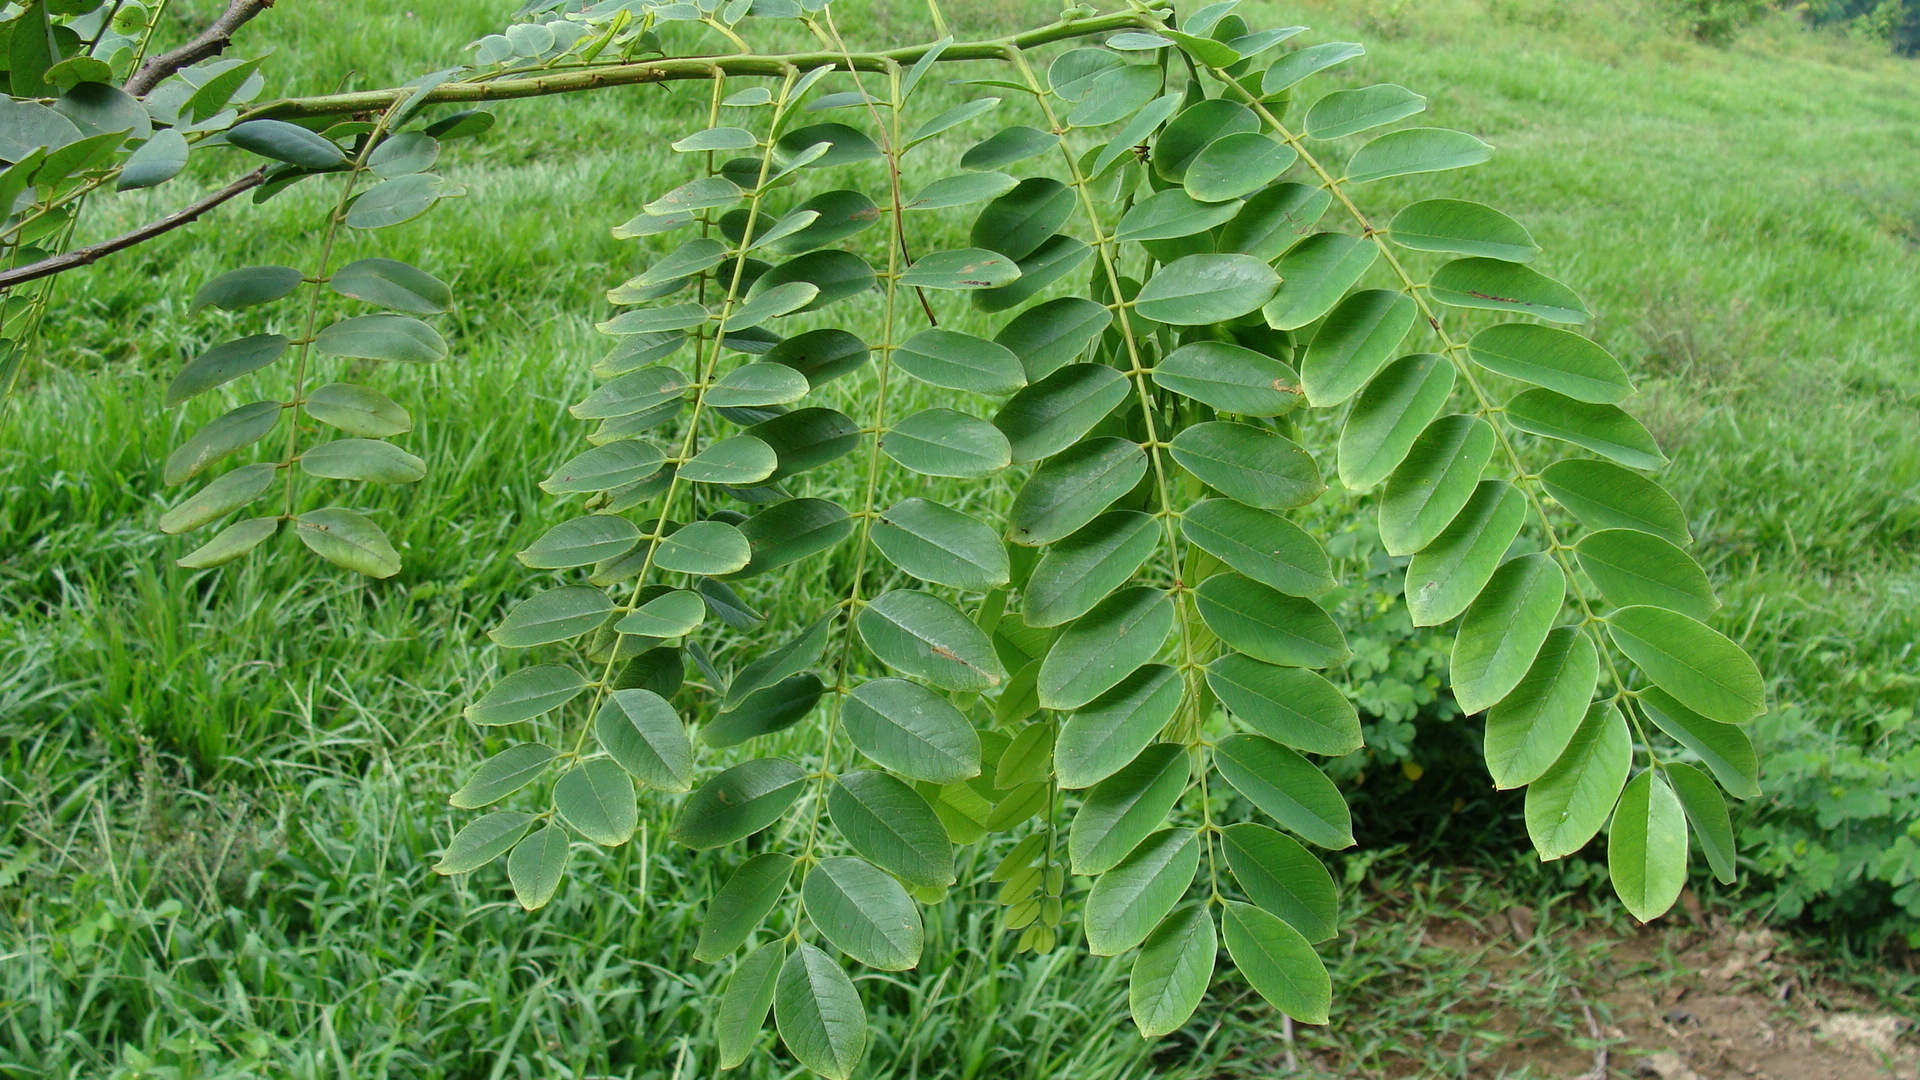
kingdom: Plantae
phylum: Tracheophyta
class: Magnoliopsida
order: Fabales
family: Fabaceae
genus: Cassia
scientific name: Cassia javanica
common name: Apple blossom
